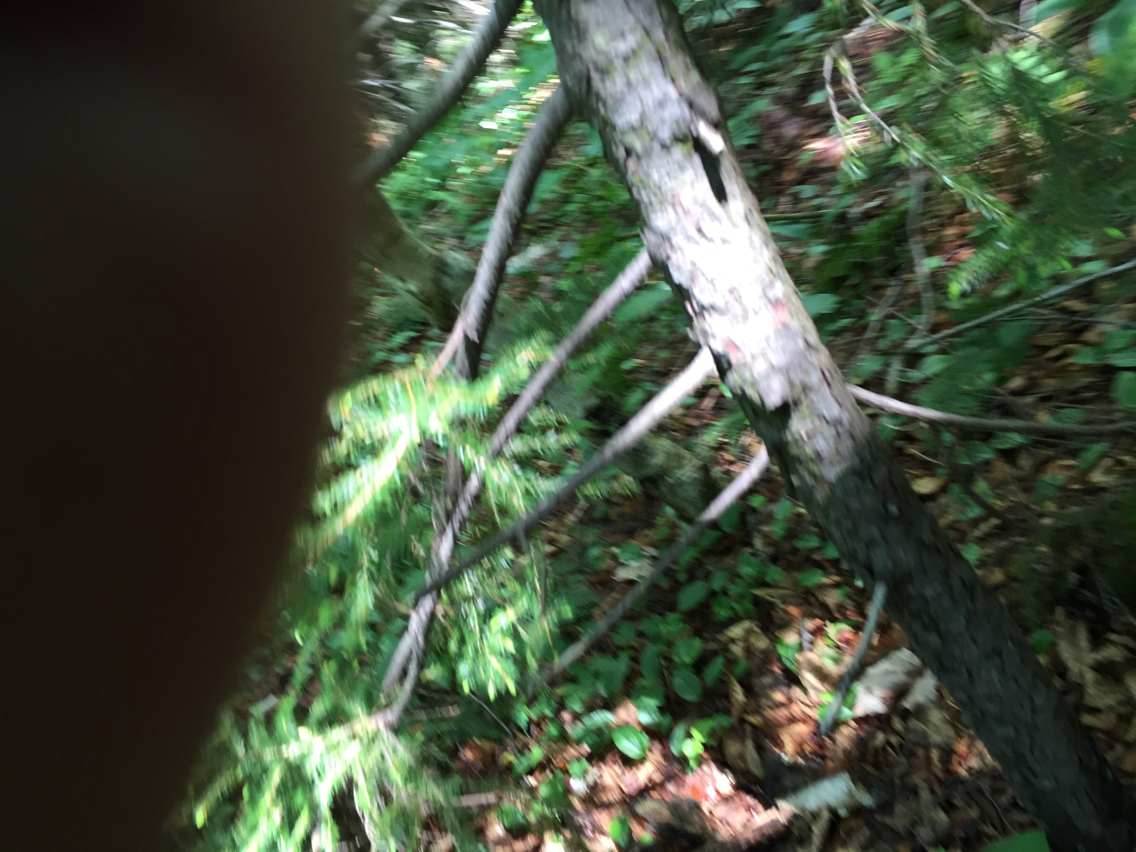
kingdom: Plantae
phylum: Tracheophyta
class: Pinopsida
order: Pinales
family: Pinaceae
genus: Picea
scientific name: Picea rubens
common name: Red spruce
